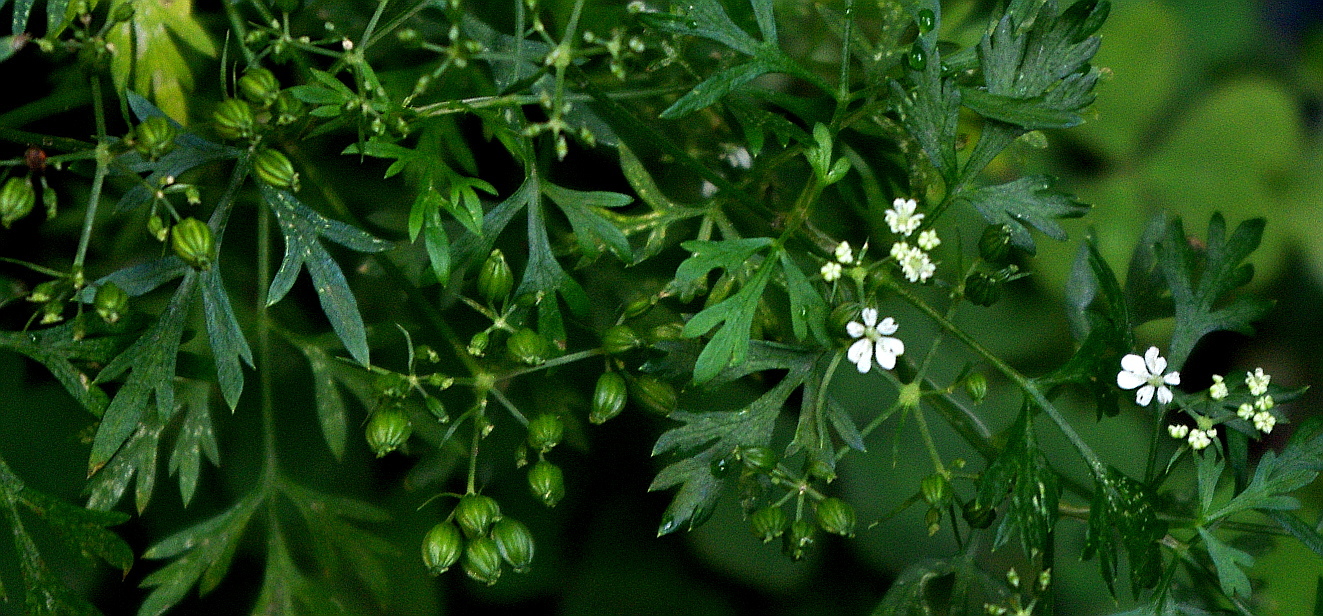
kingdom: Plantae
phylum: Tracheophyta
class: Magnoliopsida
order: Apiales
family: Apiaceae
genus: Aethusa
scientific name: Aethusa cynapium
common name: Fool's parsley
